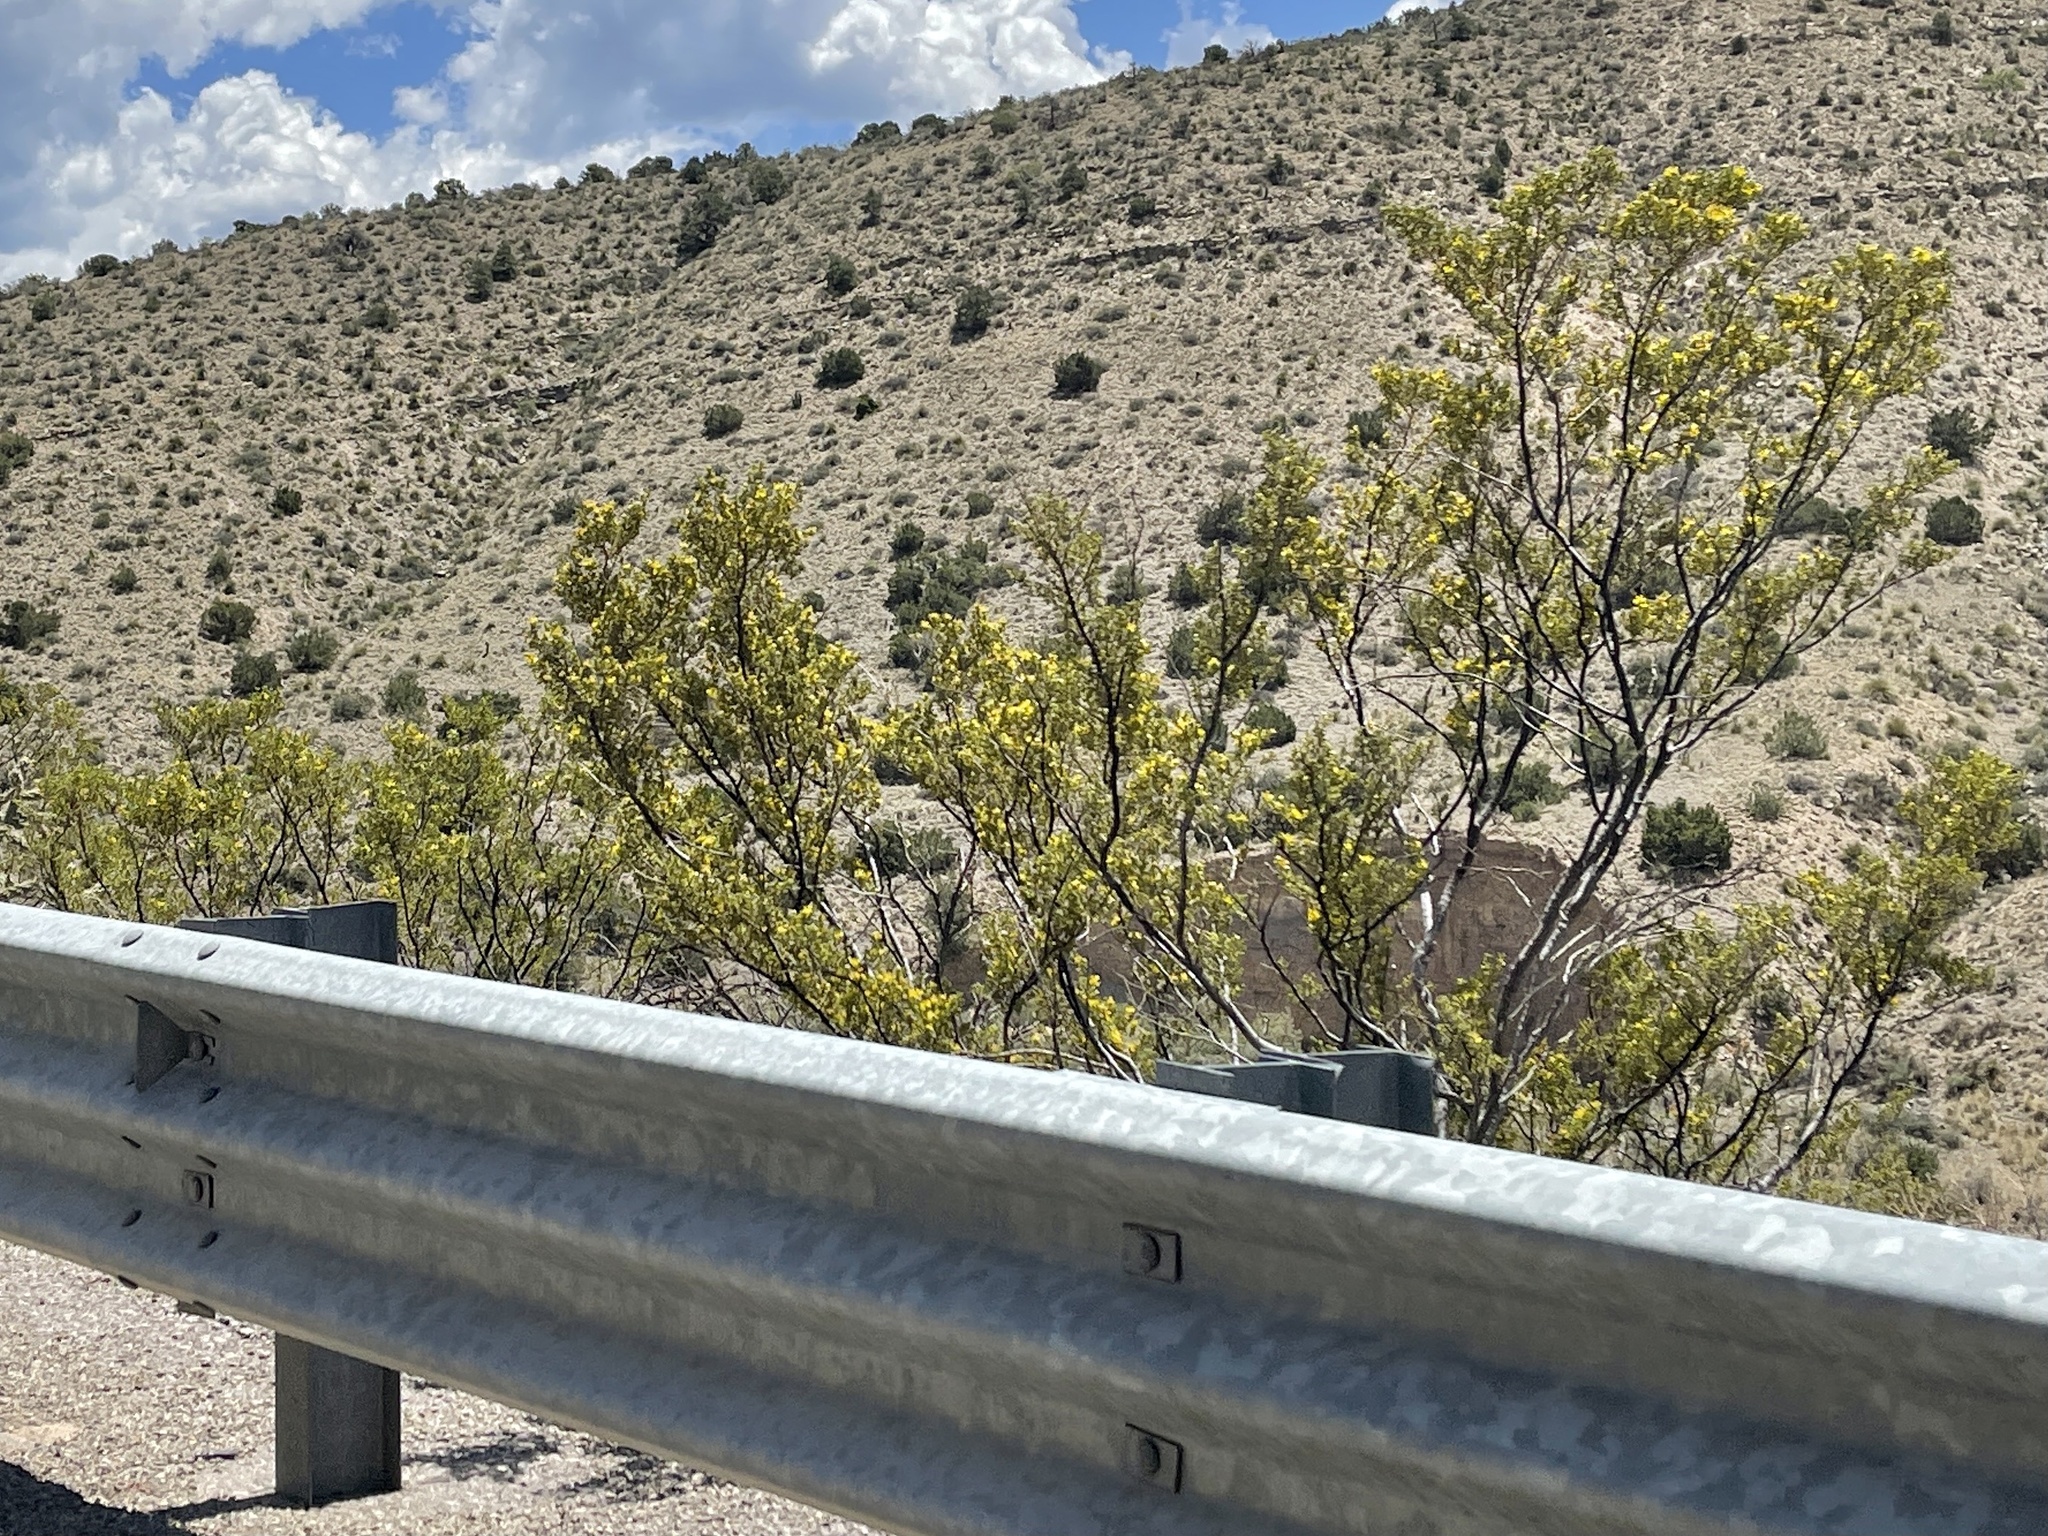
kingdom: Plantae
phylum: Tracheophyta
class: Magnoliopsida
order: Zygophyllales
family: Zygophyllaceae
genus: Larrea
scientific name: Larrea tridentata
